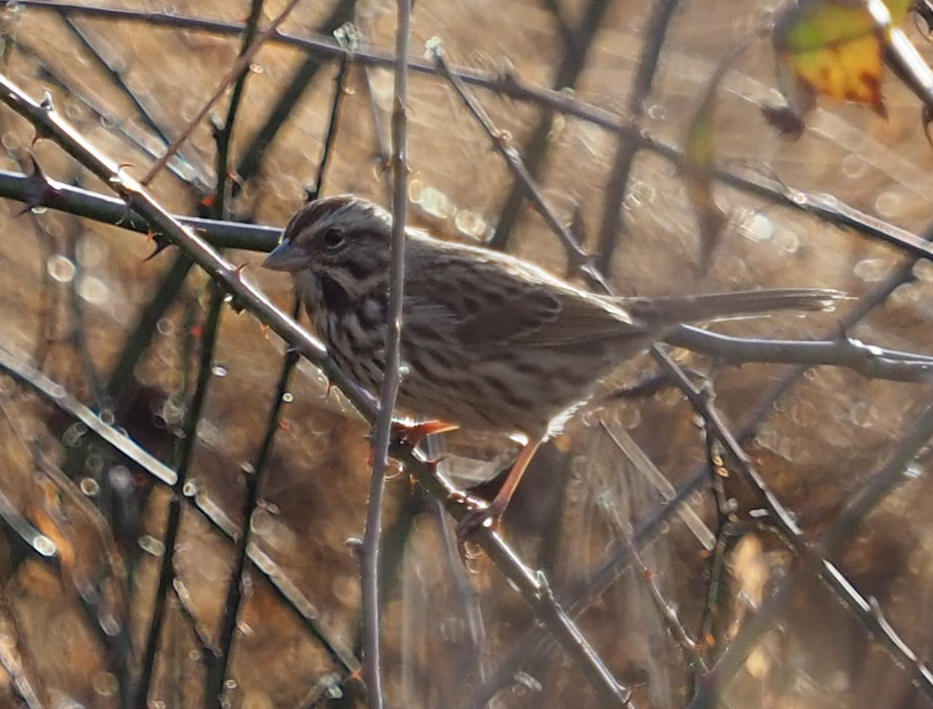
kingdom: Animalia
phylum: Chordata
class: Aves
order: Passeriformes
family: Passerellidae
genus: Melospiza
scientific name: Melospiza melodia
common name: Song sparrow
